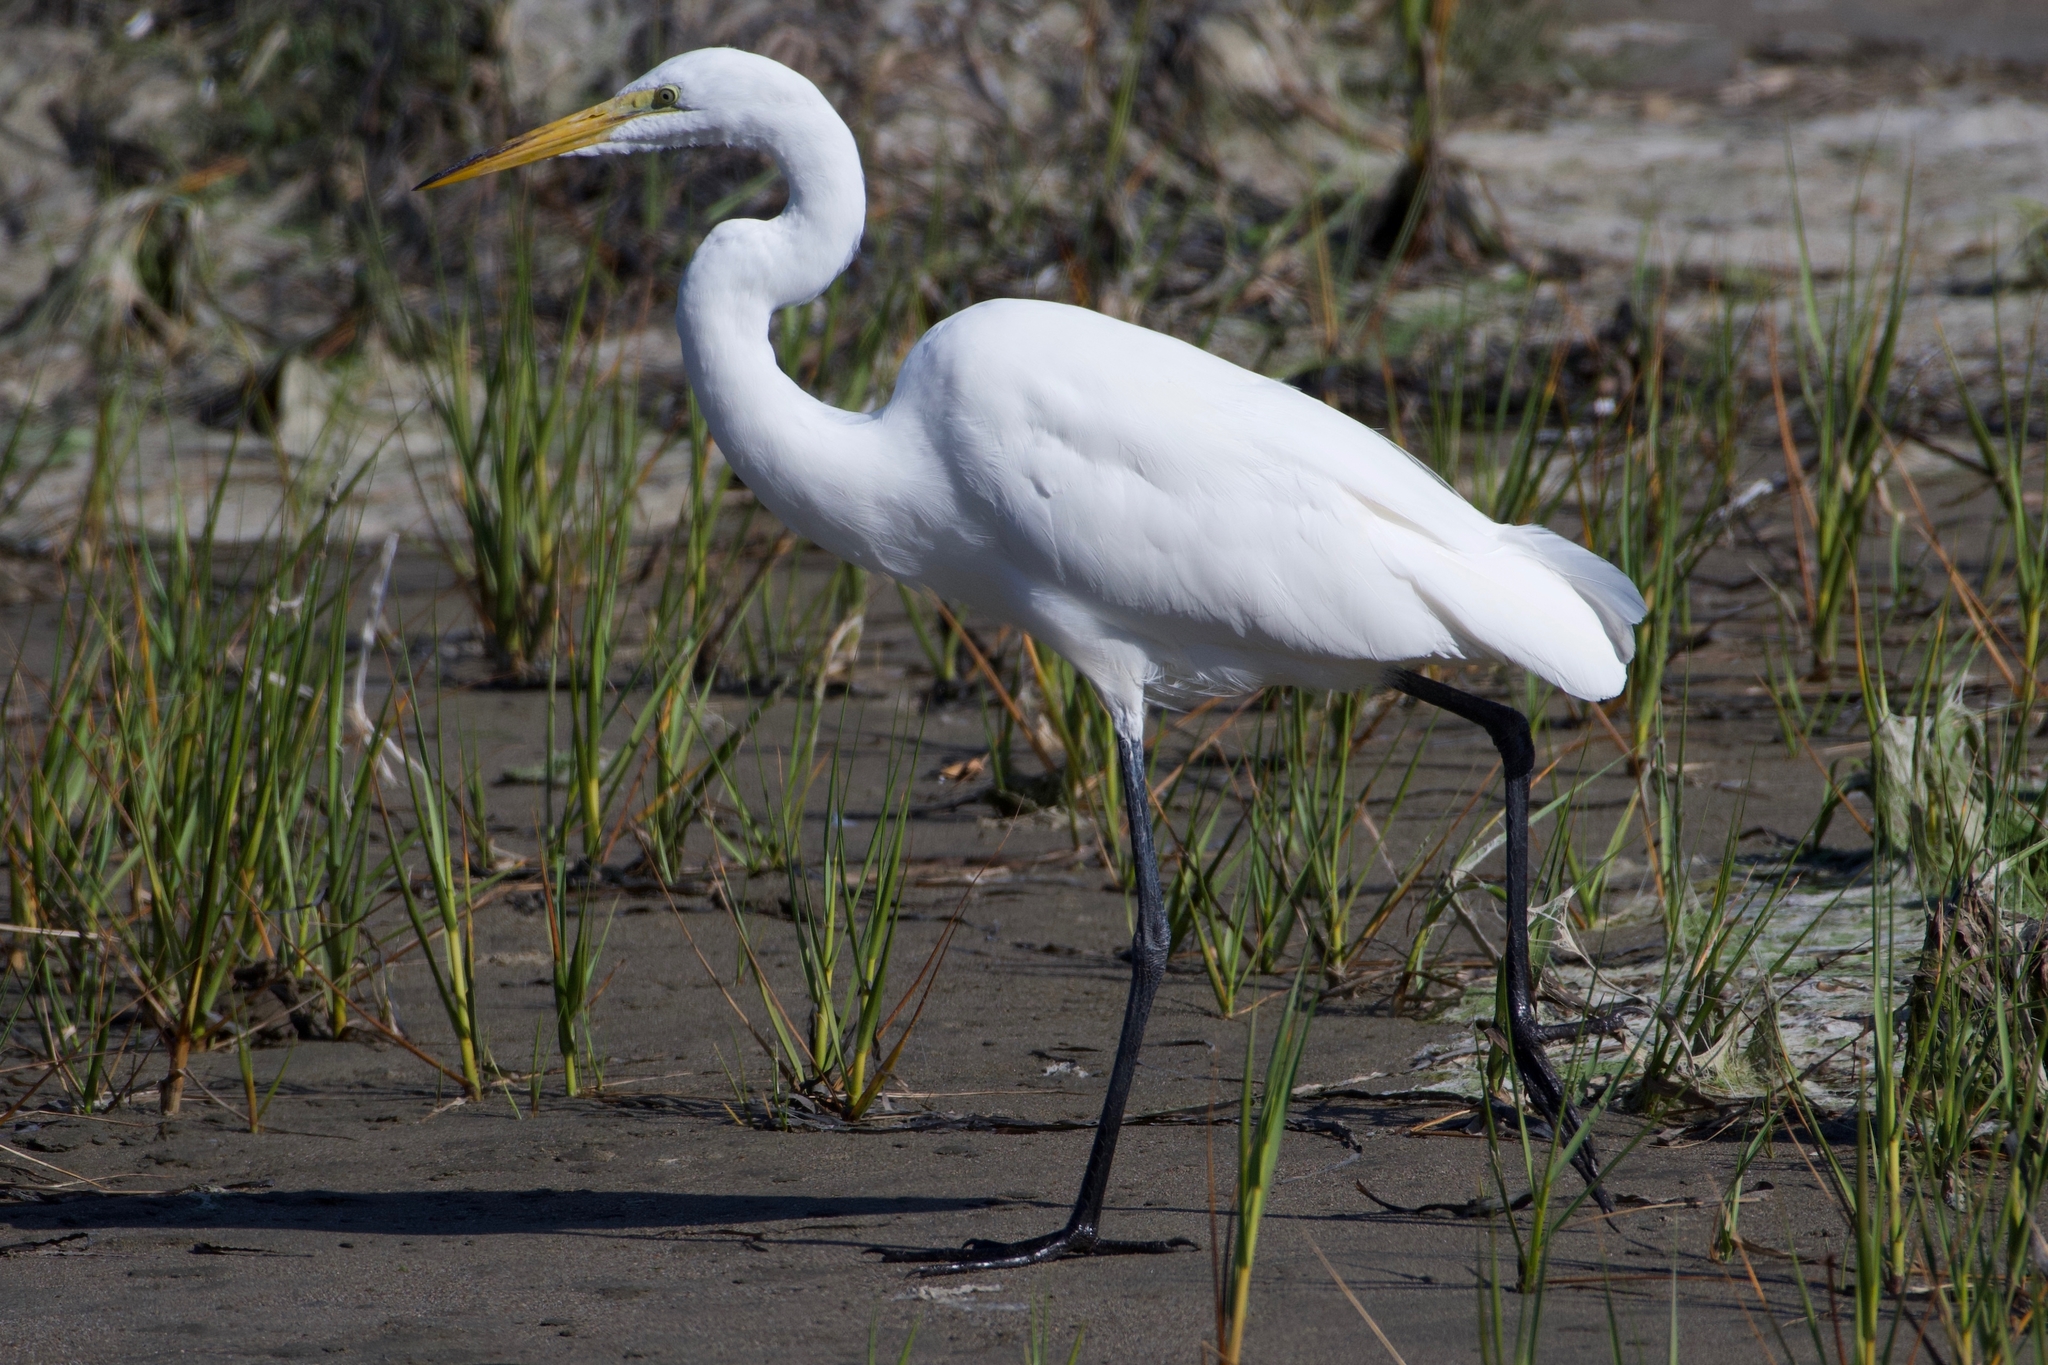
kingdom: Animalia
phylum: Chordata
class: Aves
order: Pelecaniformes
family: Ardeidae
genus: Ardea
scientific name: Ardea alba
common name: Great egret
